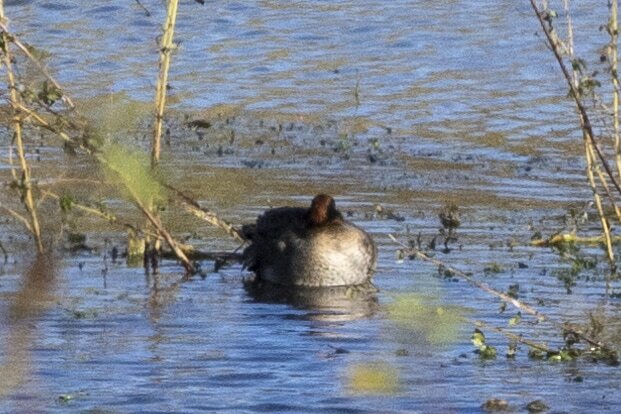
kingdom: Animalia
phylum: Chordata
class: Aves
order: Anseriformes
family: Anatidae
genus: Anas
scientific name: Anas crecca
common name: Eurasian teal
